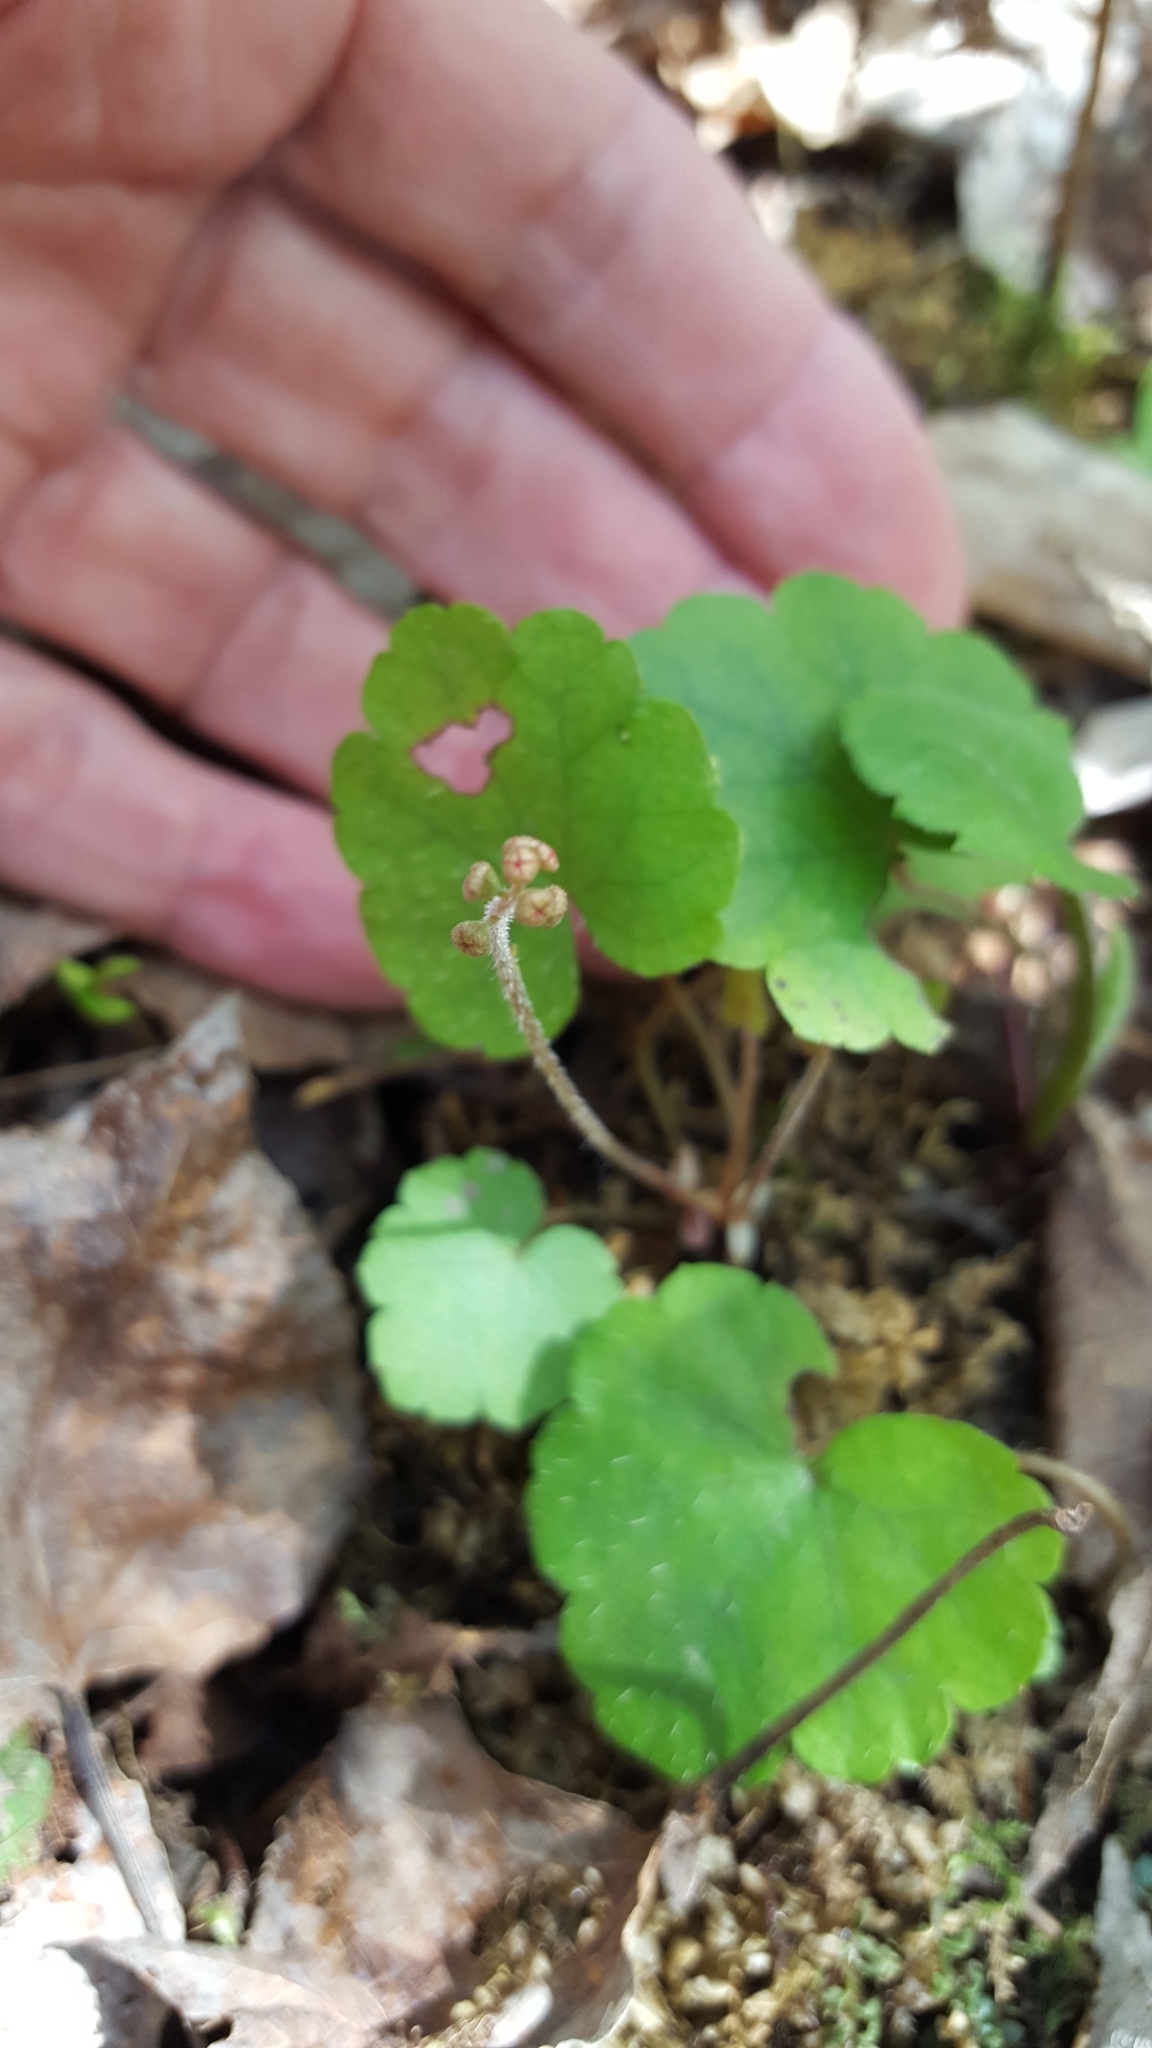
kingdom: Plantae
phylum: Tracheophyta
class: Magnoliopsida
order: Saxifragales
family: Saxifragaceae
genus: Mitella
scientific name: Mitella nuda
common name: Bare-stemmed bishop's-cap
